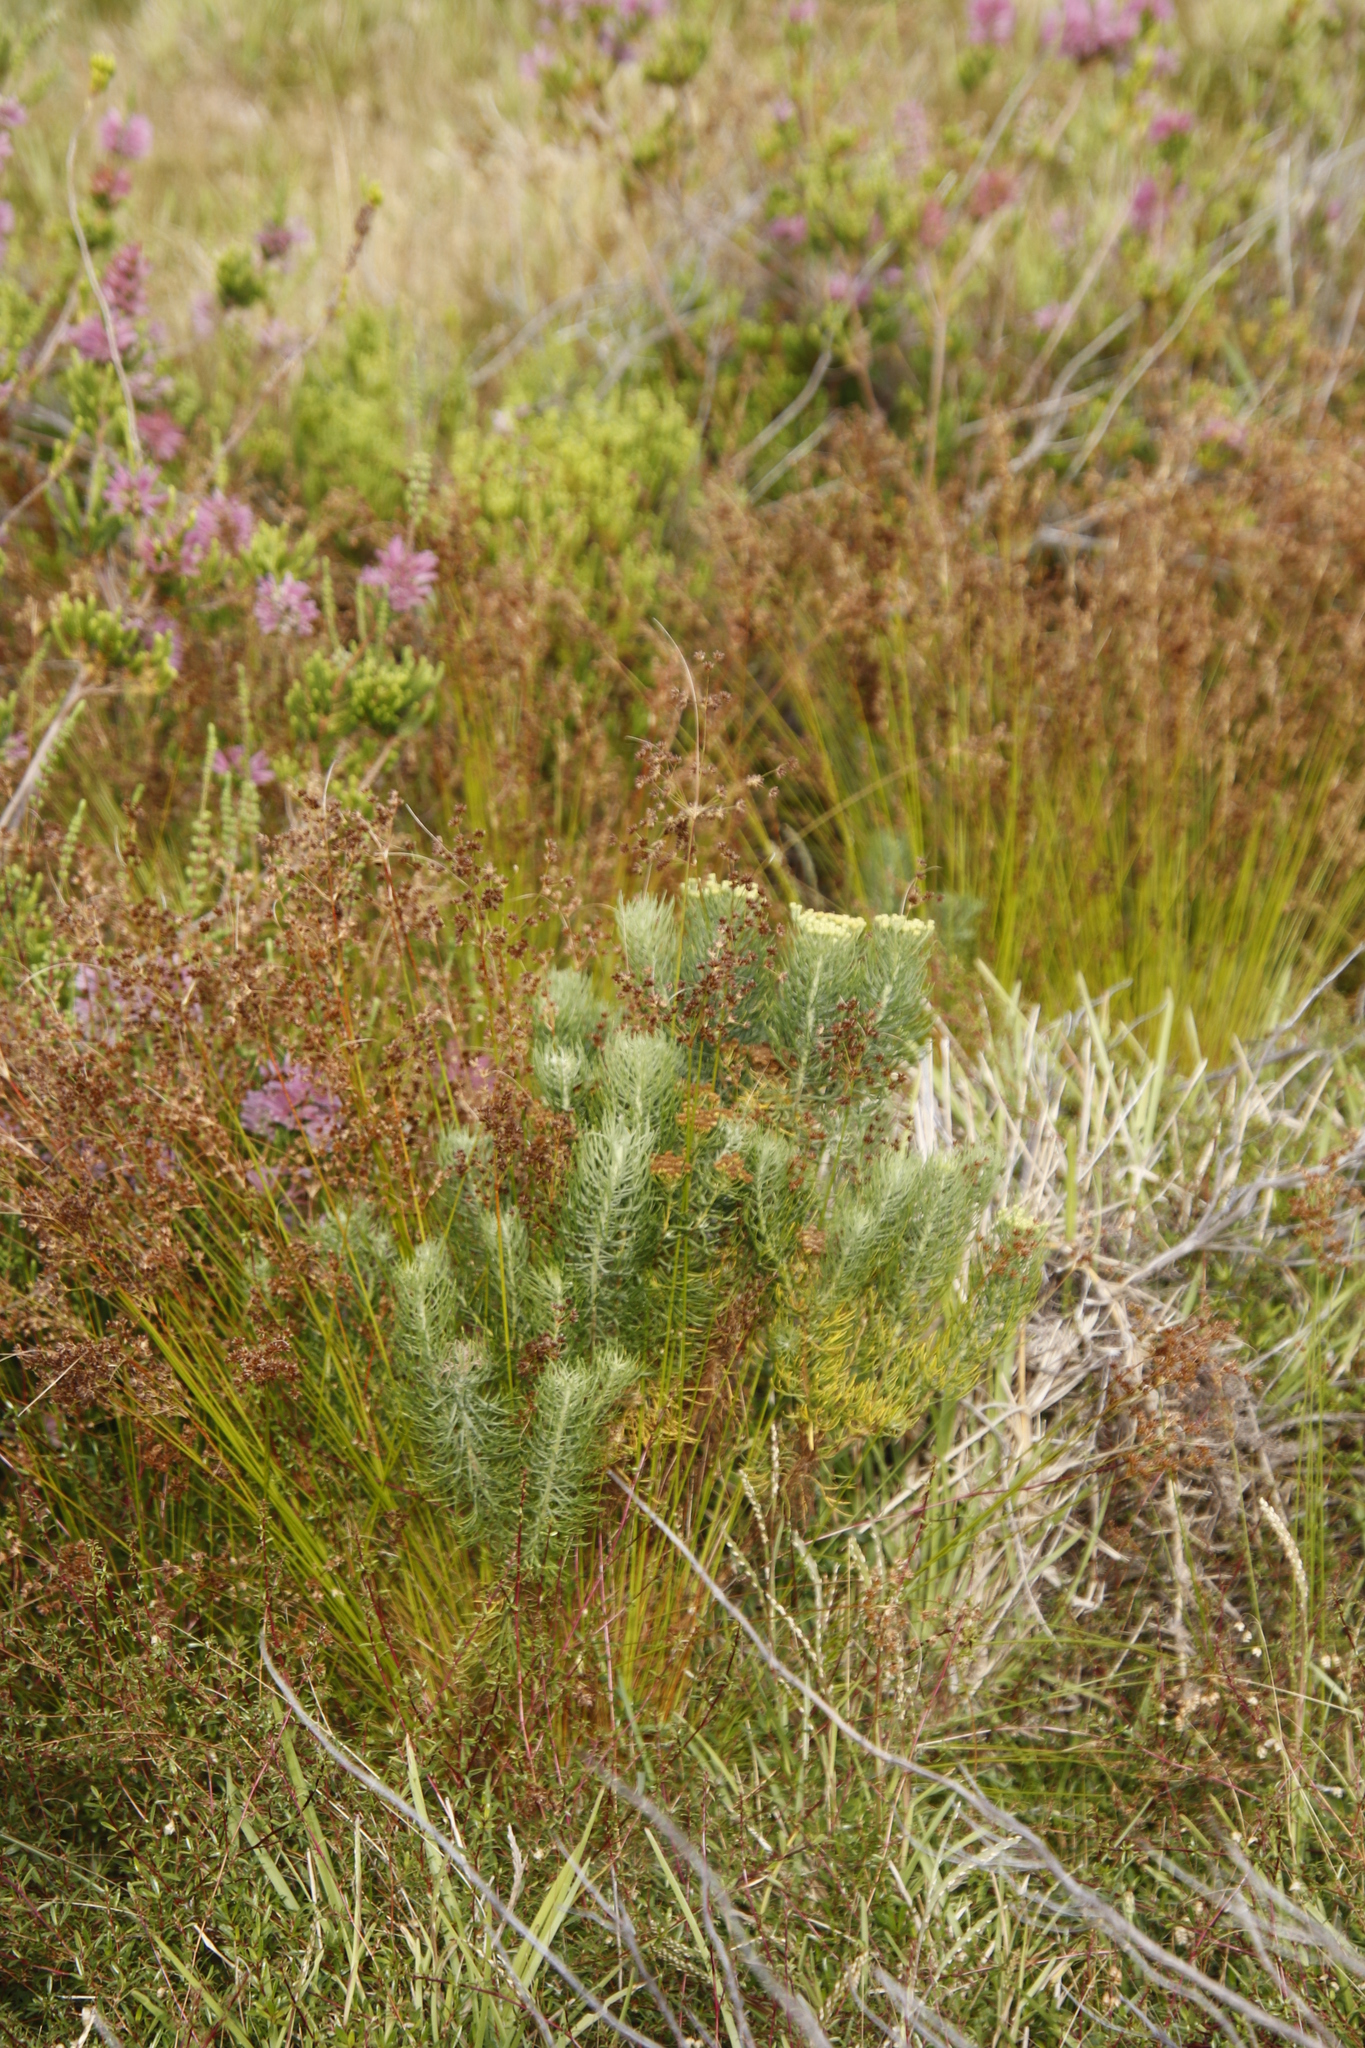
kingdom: Plantae
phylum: Tracheophyta
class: Magnoliopsida
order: Asterales
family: Asteraceae
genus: Athanasia
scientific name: Athanasia crithmifolia
